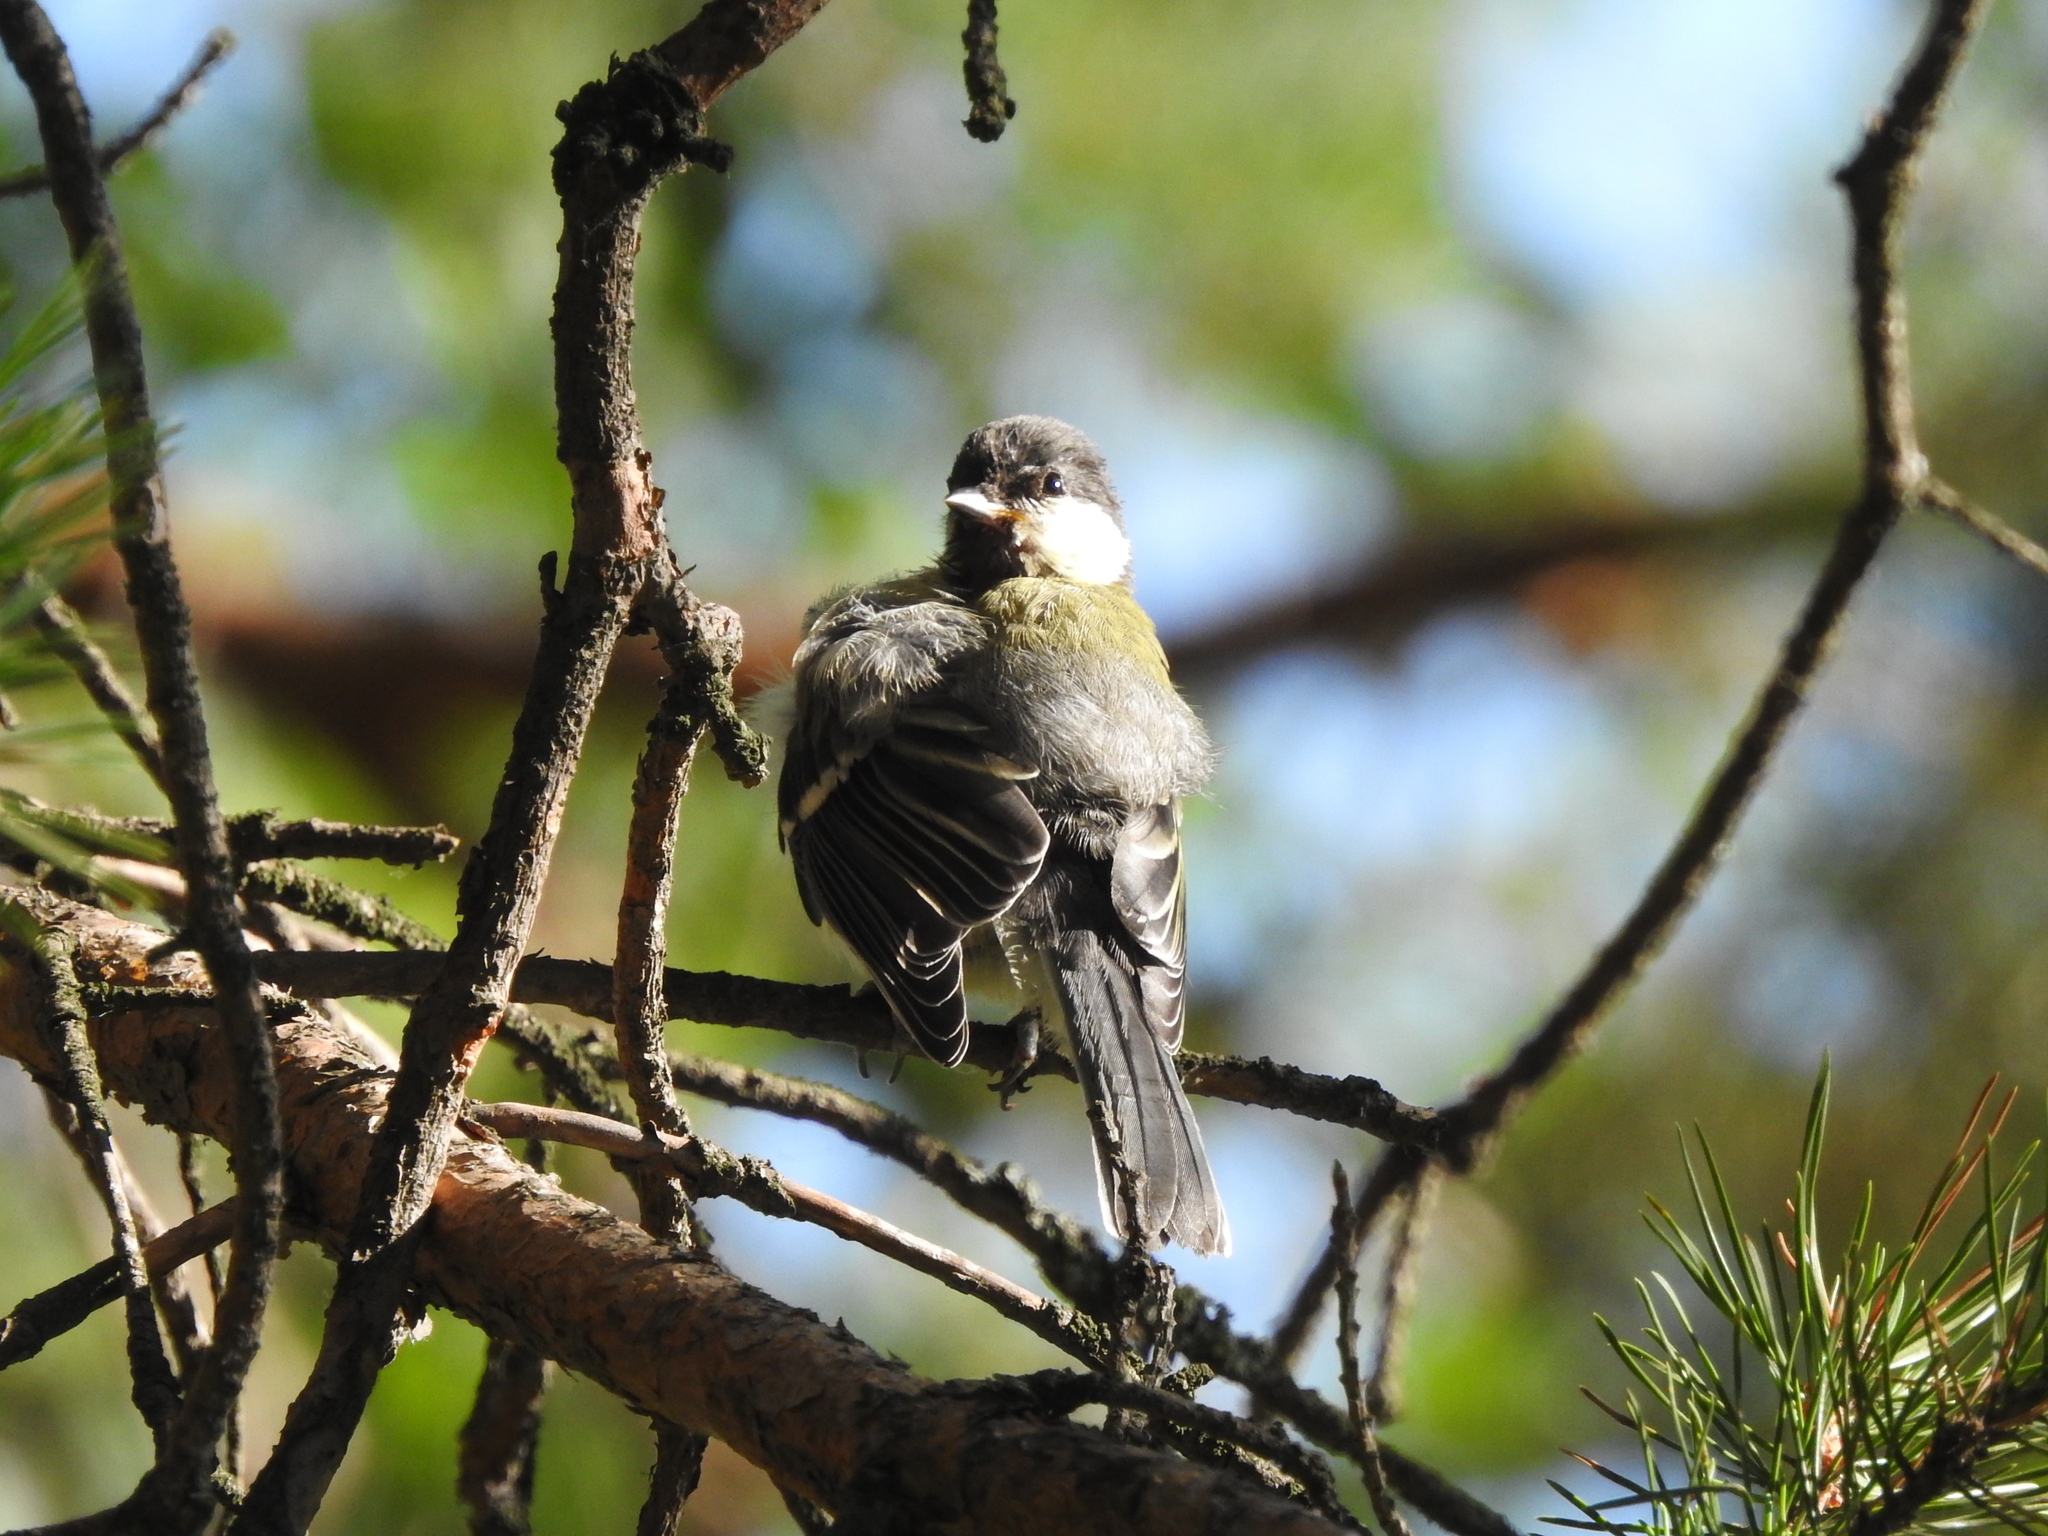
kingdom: Animalia
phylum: Chordata
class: Aves
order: Passeriformes
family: Paridae
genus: Parus
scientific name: Parus major
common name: Great tit
